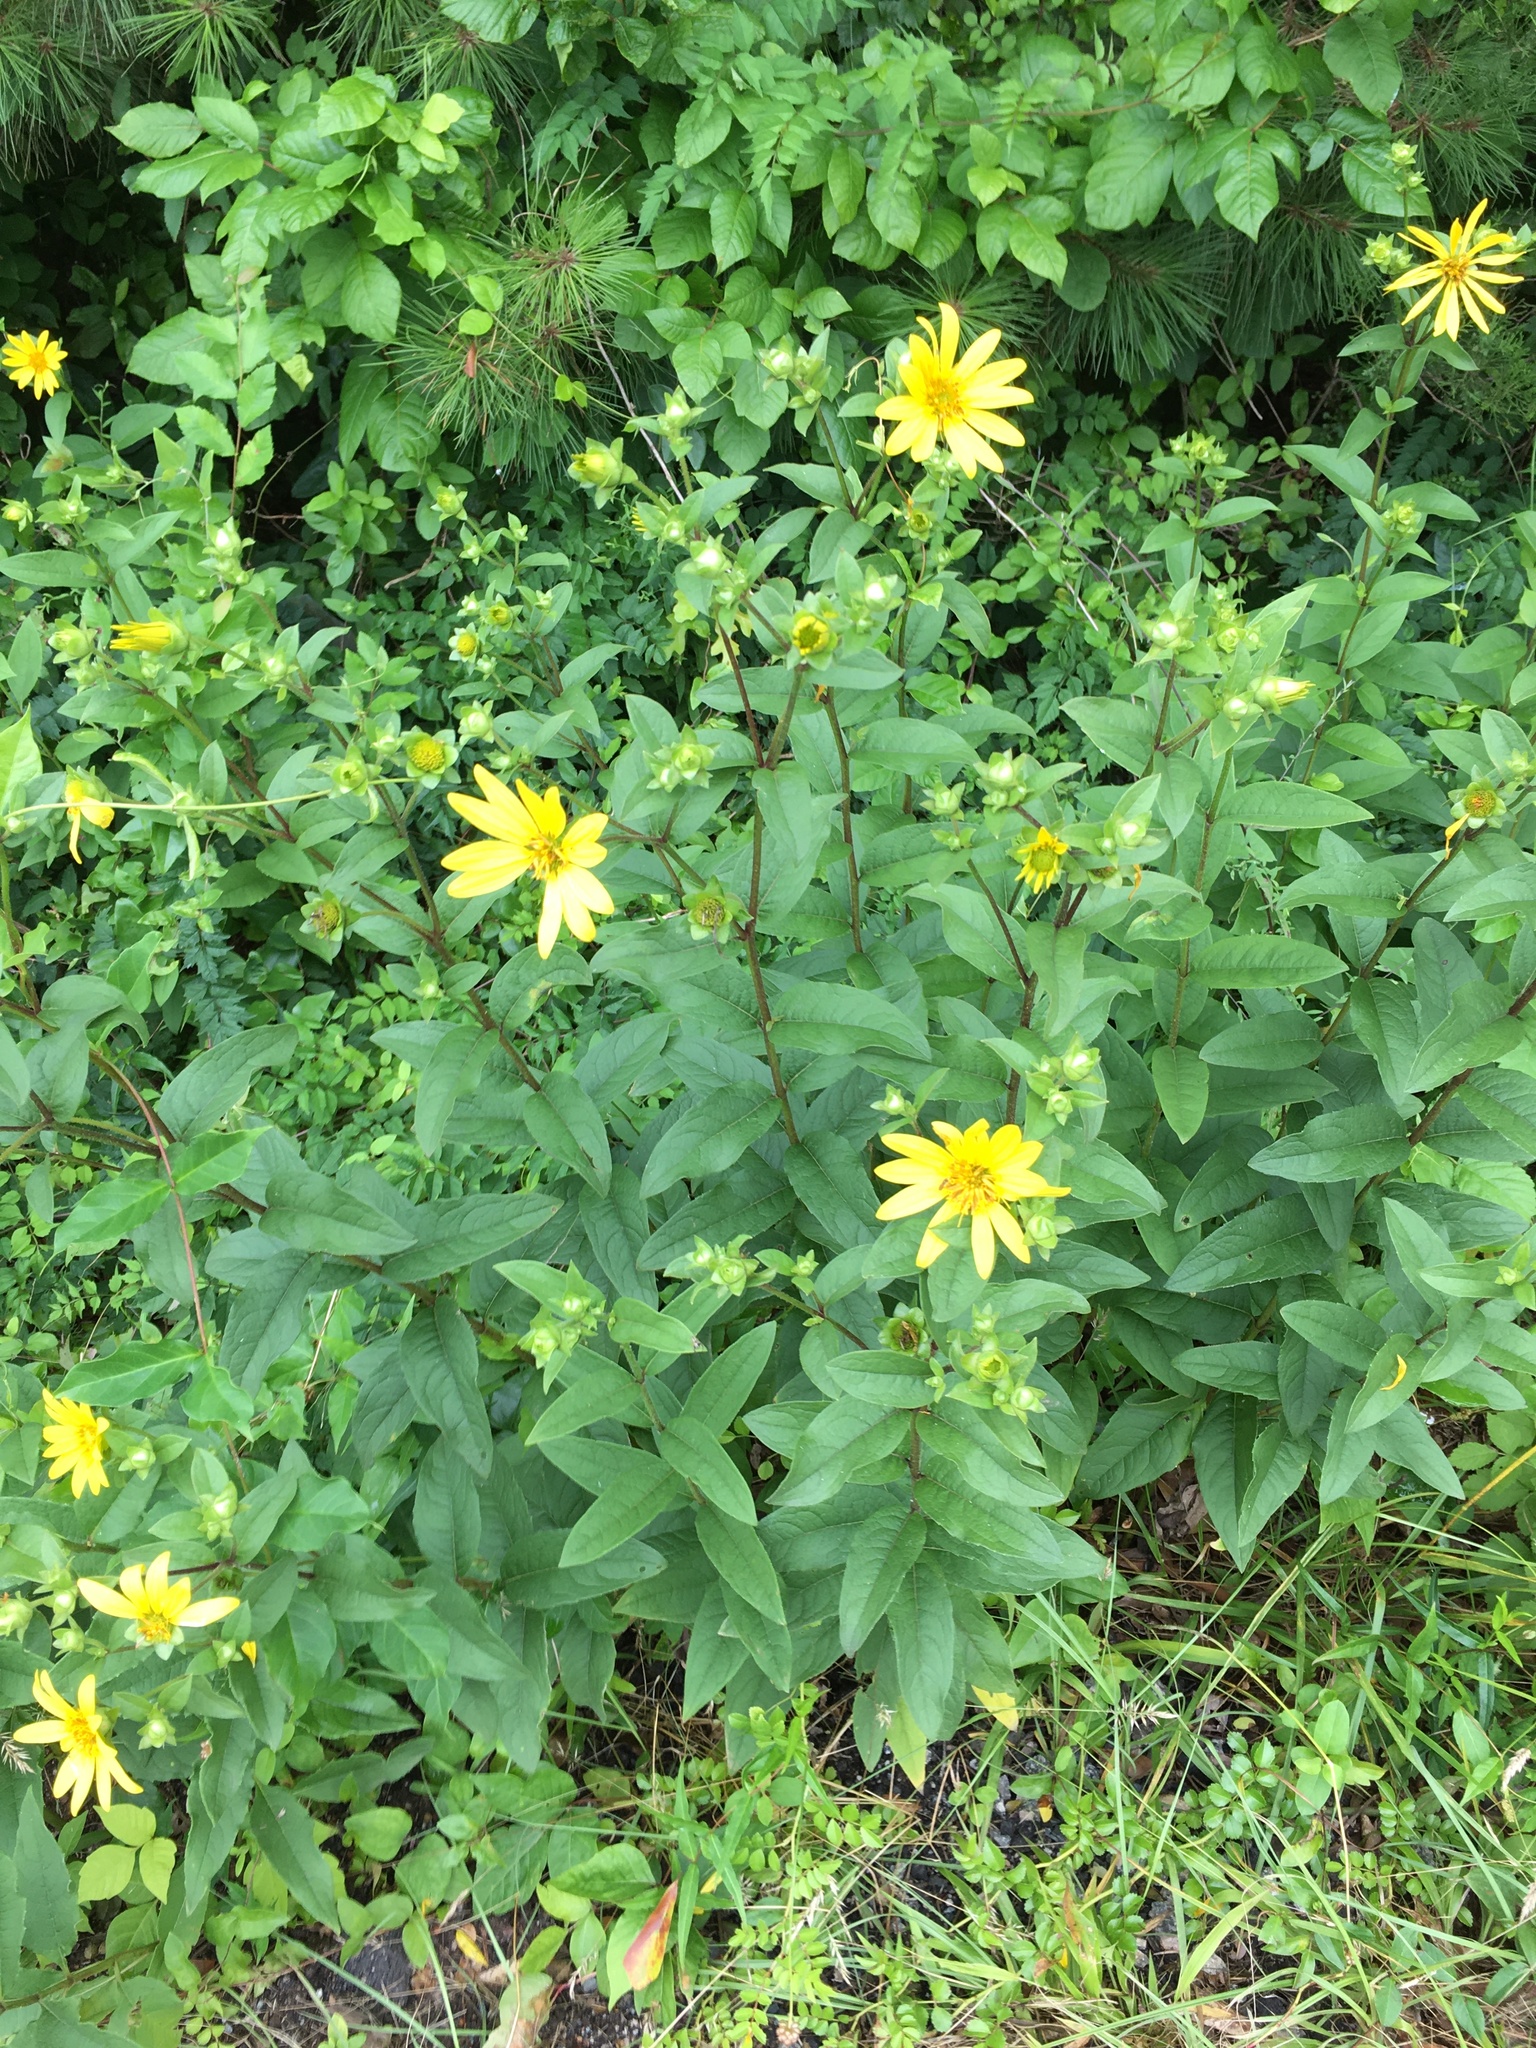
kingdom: Plantae
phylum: Tracheophyta
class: Magnoliopsida
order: Asterales
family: Asteraceae
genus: Silphium
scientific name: Silphium asteriscus
